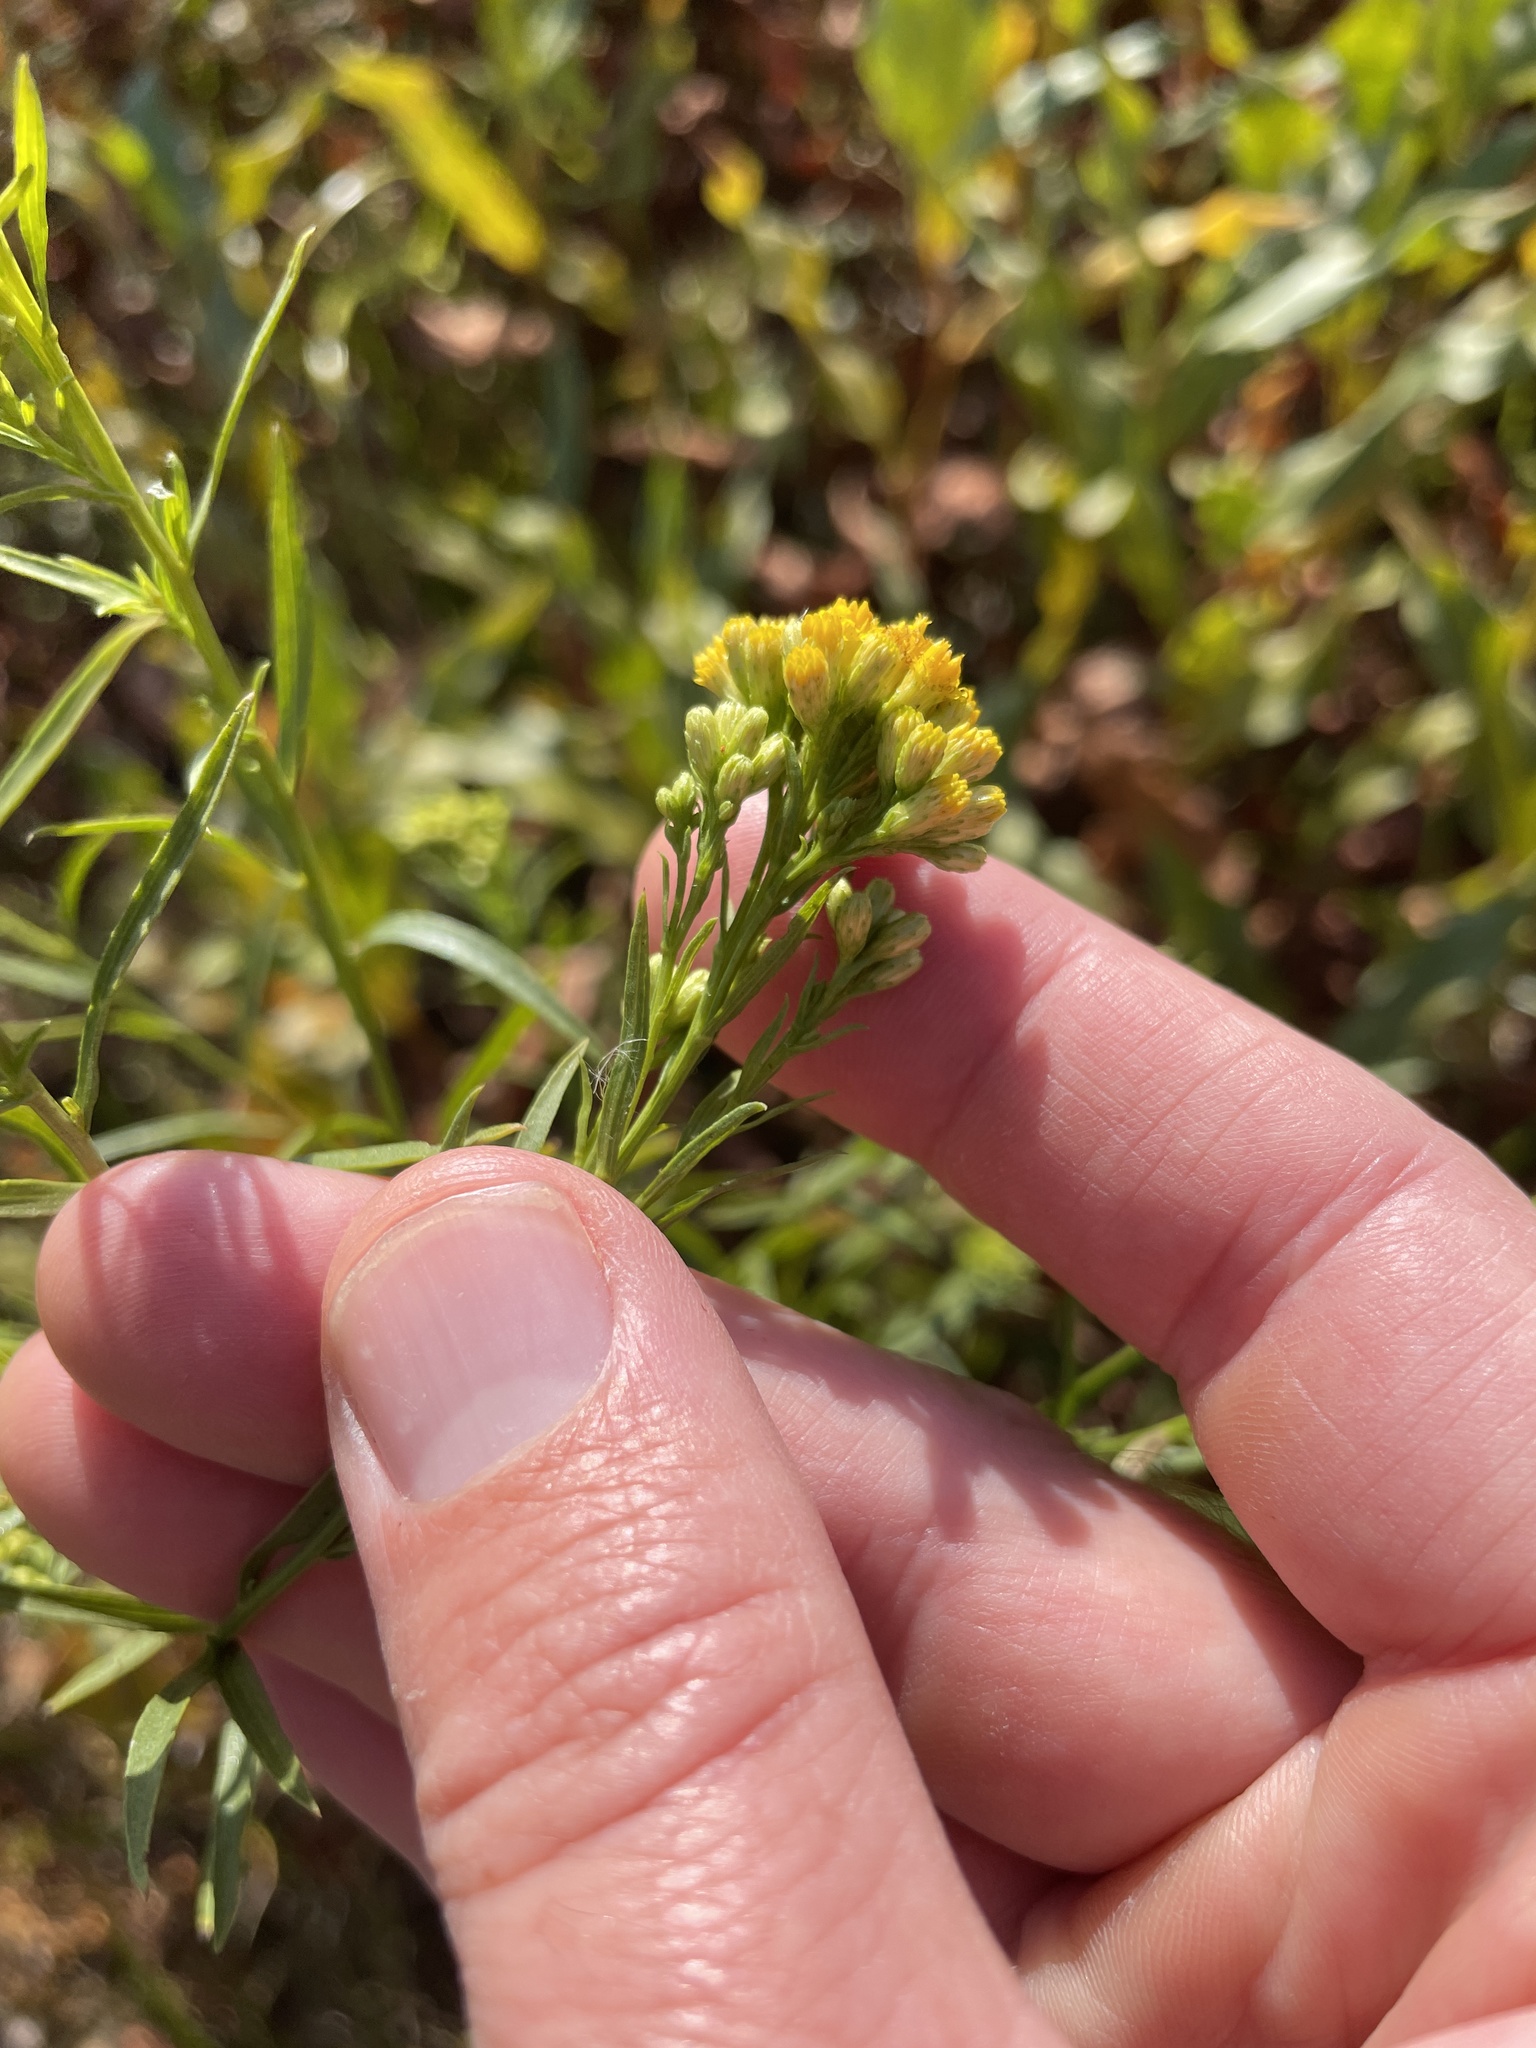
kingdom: Plantae
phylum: Tracheophyta
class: Magnoliopsida
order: Asterales
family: Asteraceae
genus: Euthamia
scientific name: Euthamia occidentalis
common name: Western goldentop
